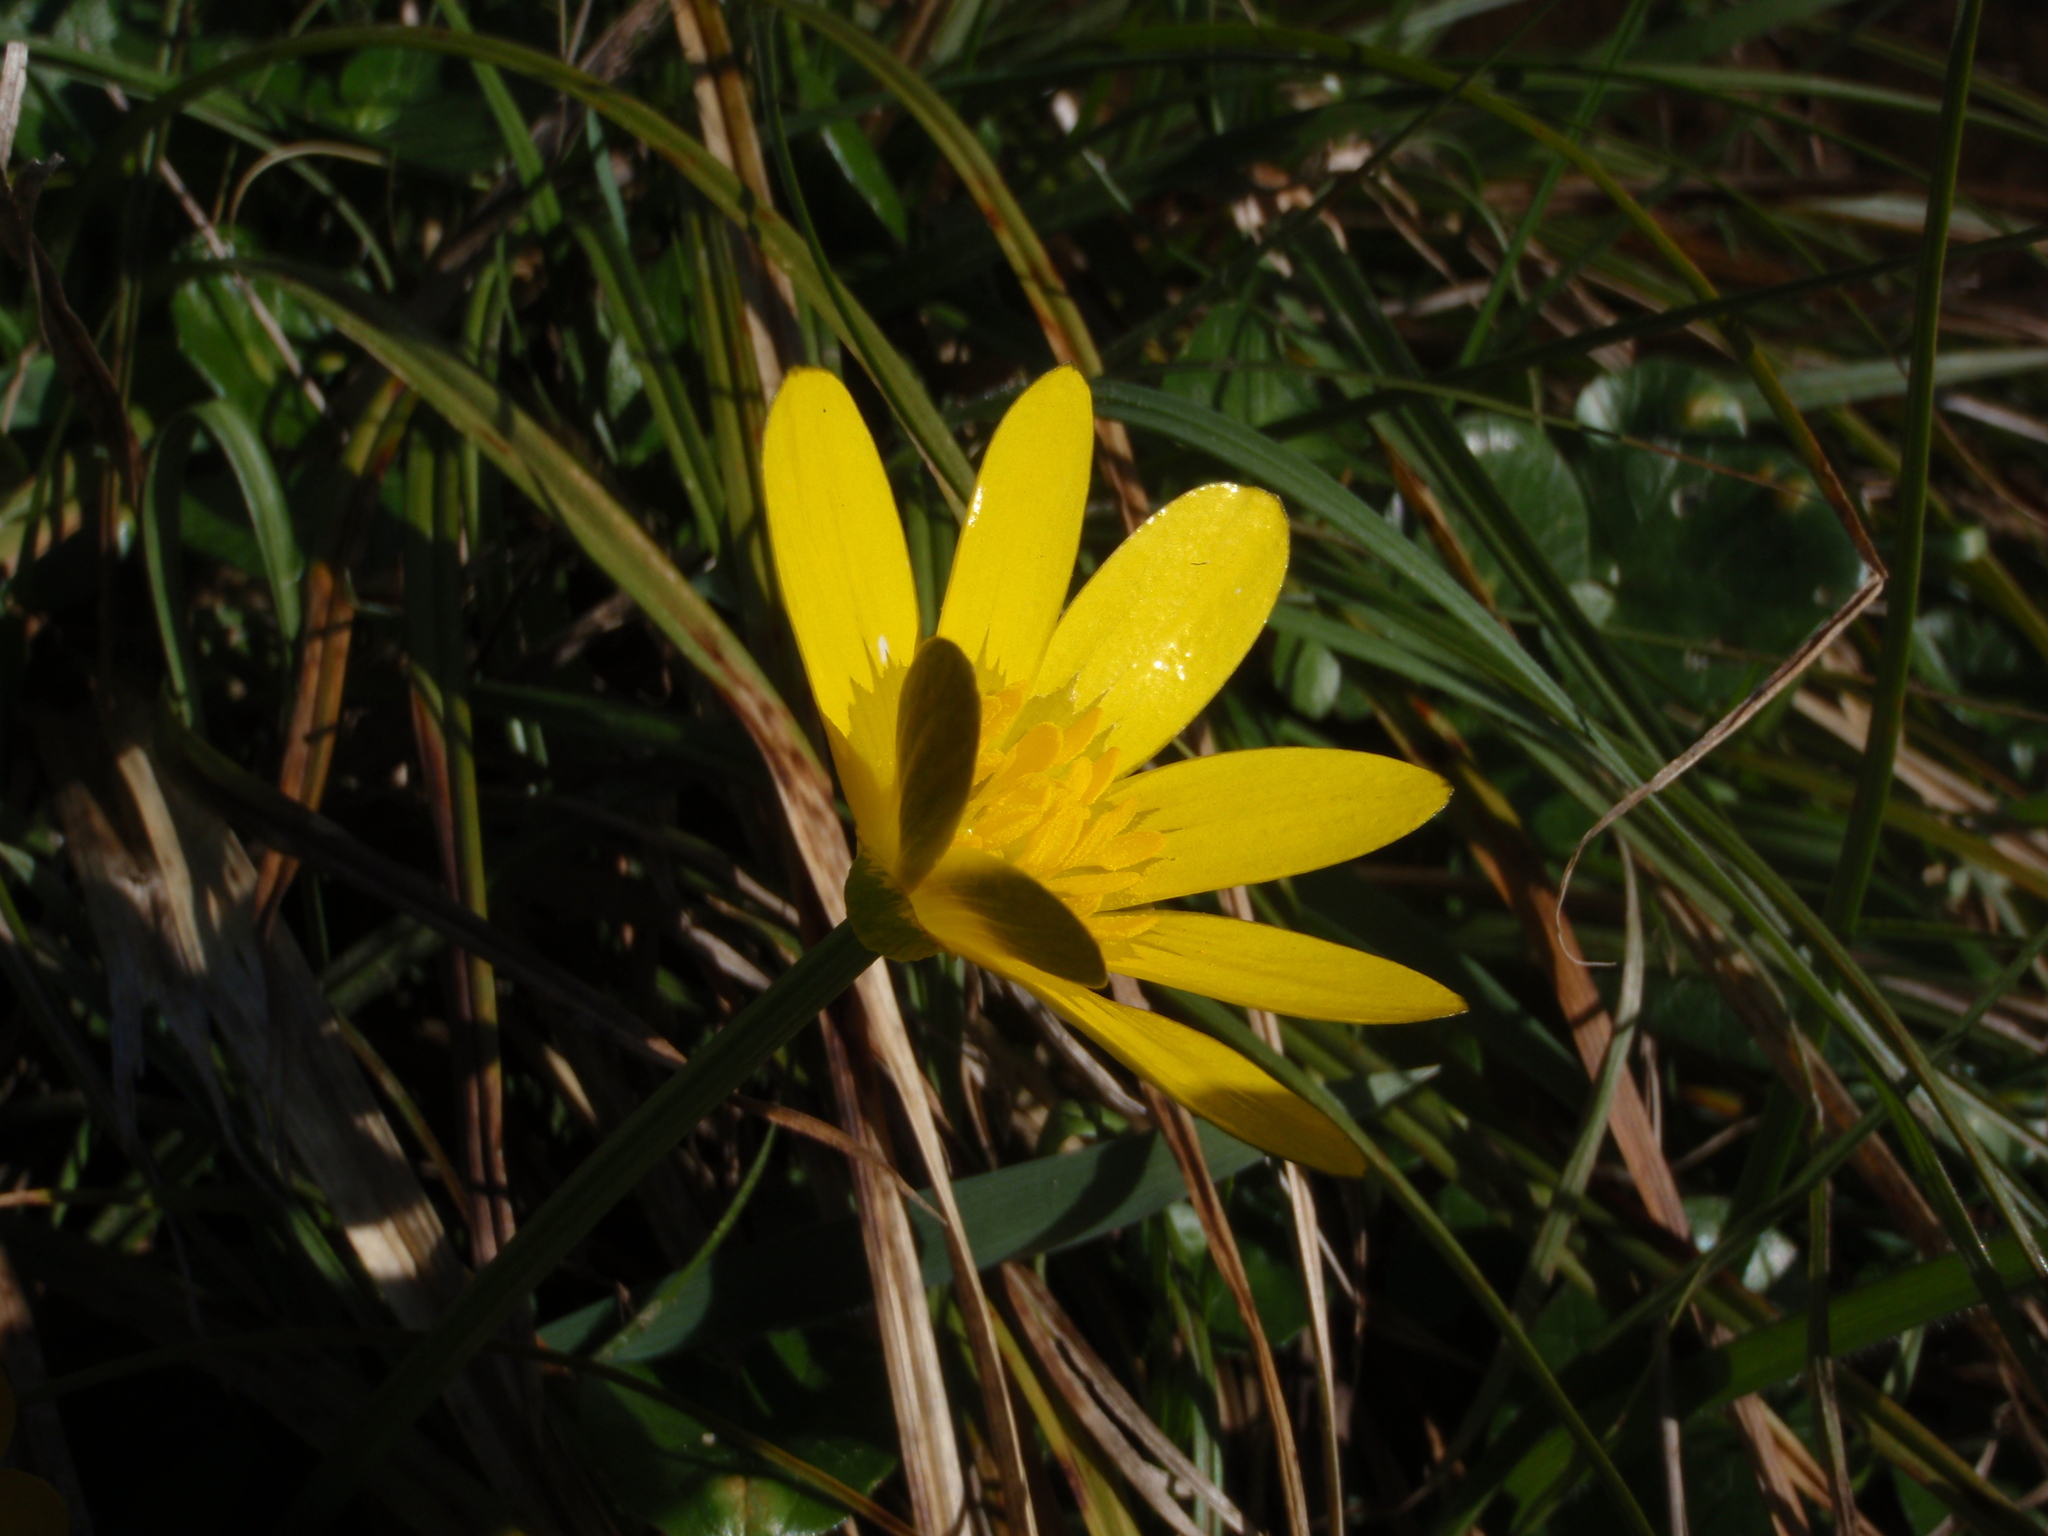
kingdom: Plantae
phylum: Tracheophyta
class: Magnoliopsida
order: Ranunculales
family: Ranunculaceae
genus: Ficaria
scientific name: Ficaria verna
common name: Lesser celandine
